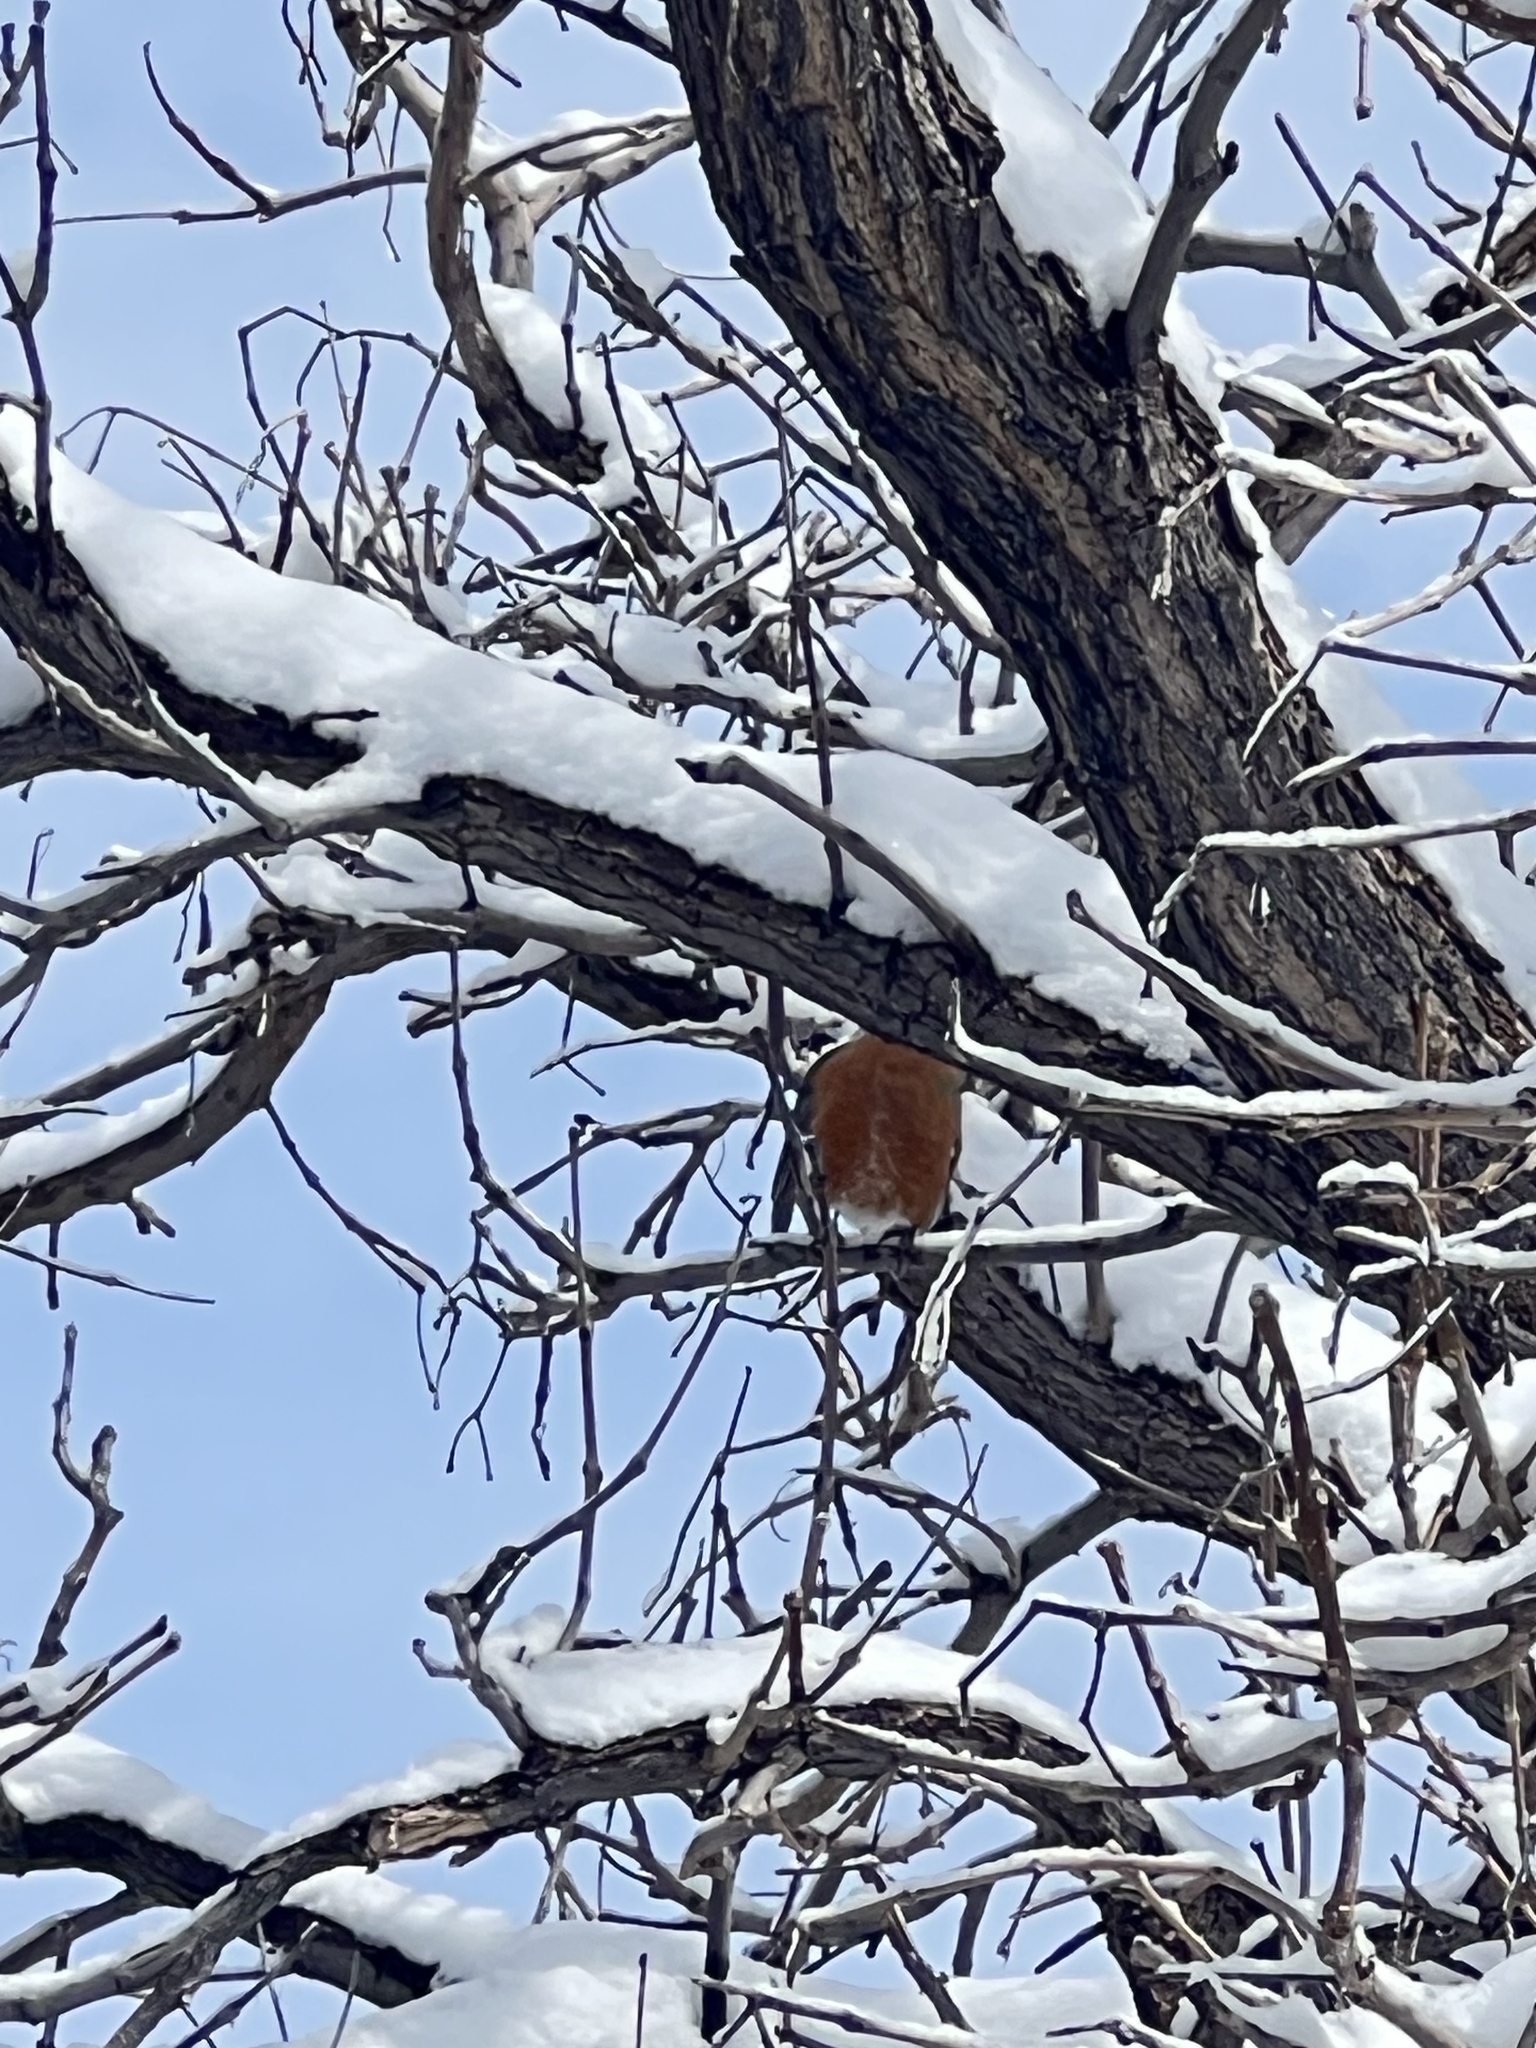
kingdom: Animalia
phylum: Chordata
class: Aves
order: Passeriformes
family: Turdidae
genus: Turdus
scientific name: Turdus migratorius
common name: American robin
